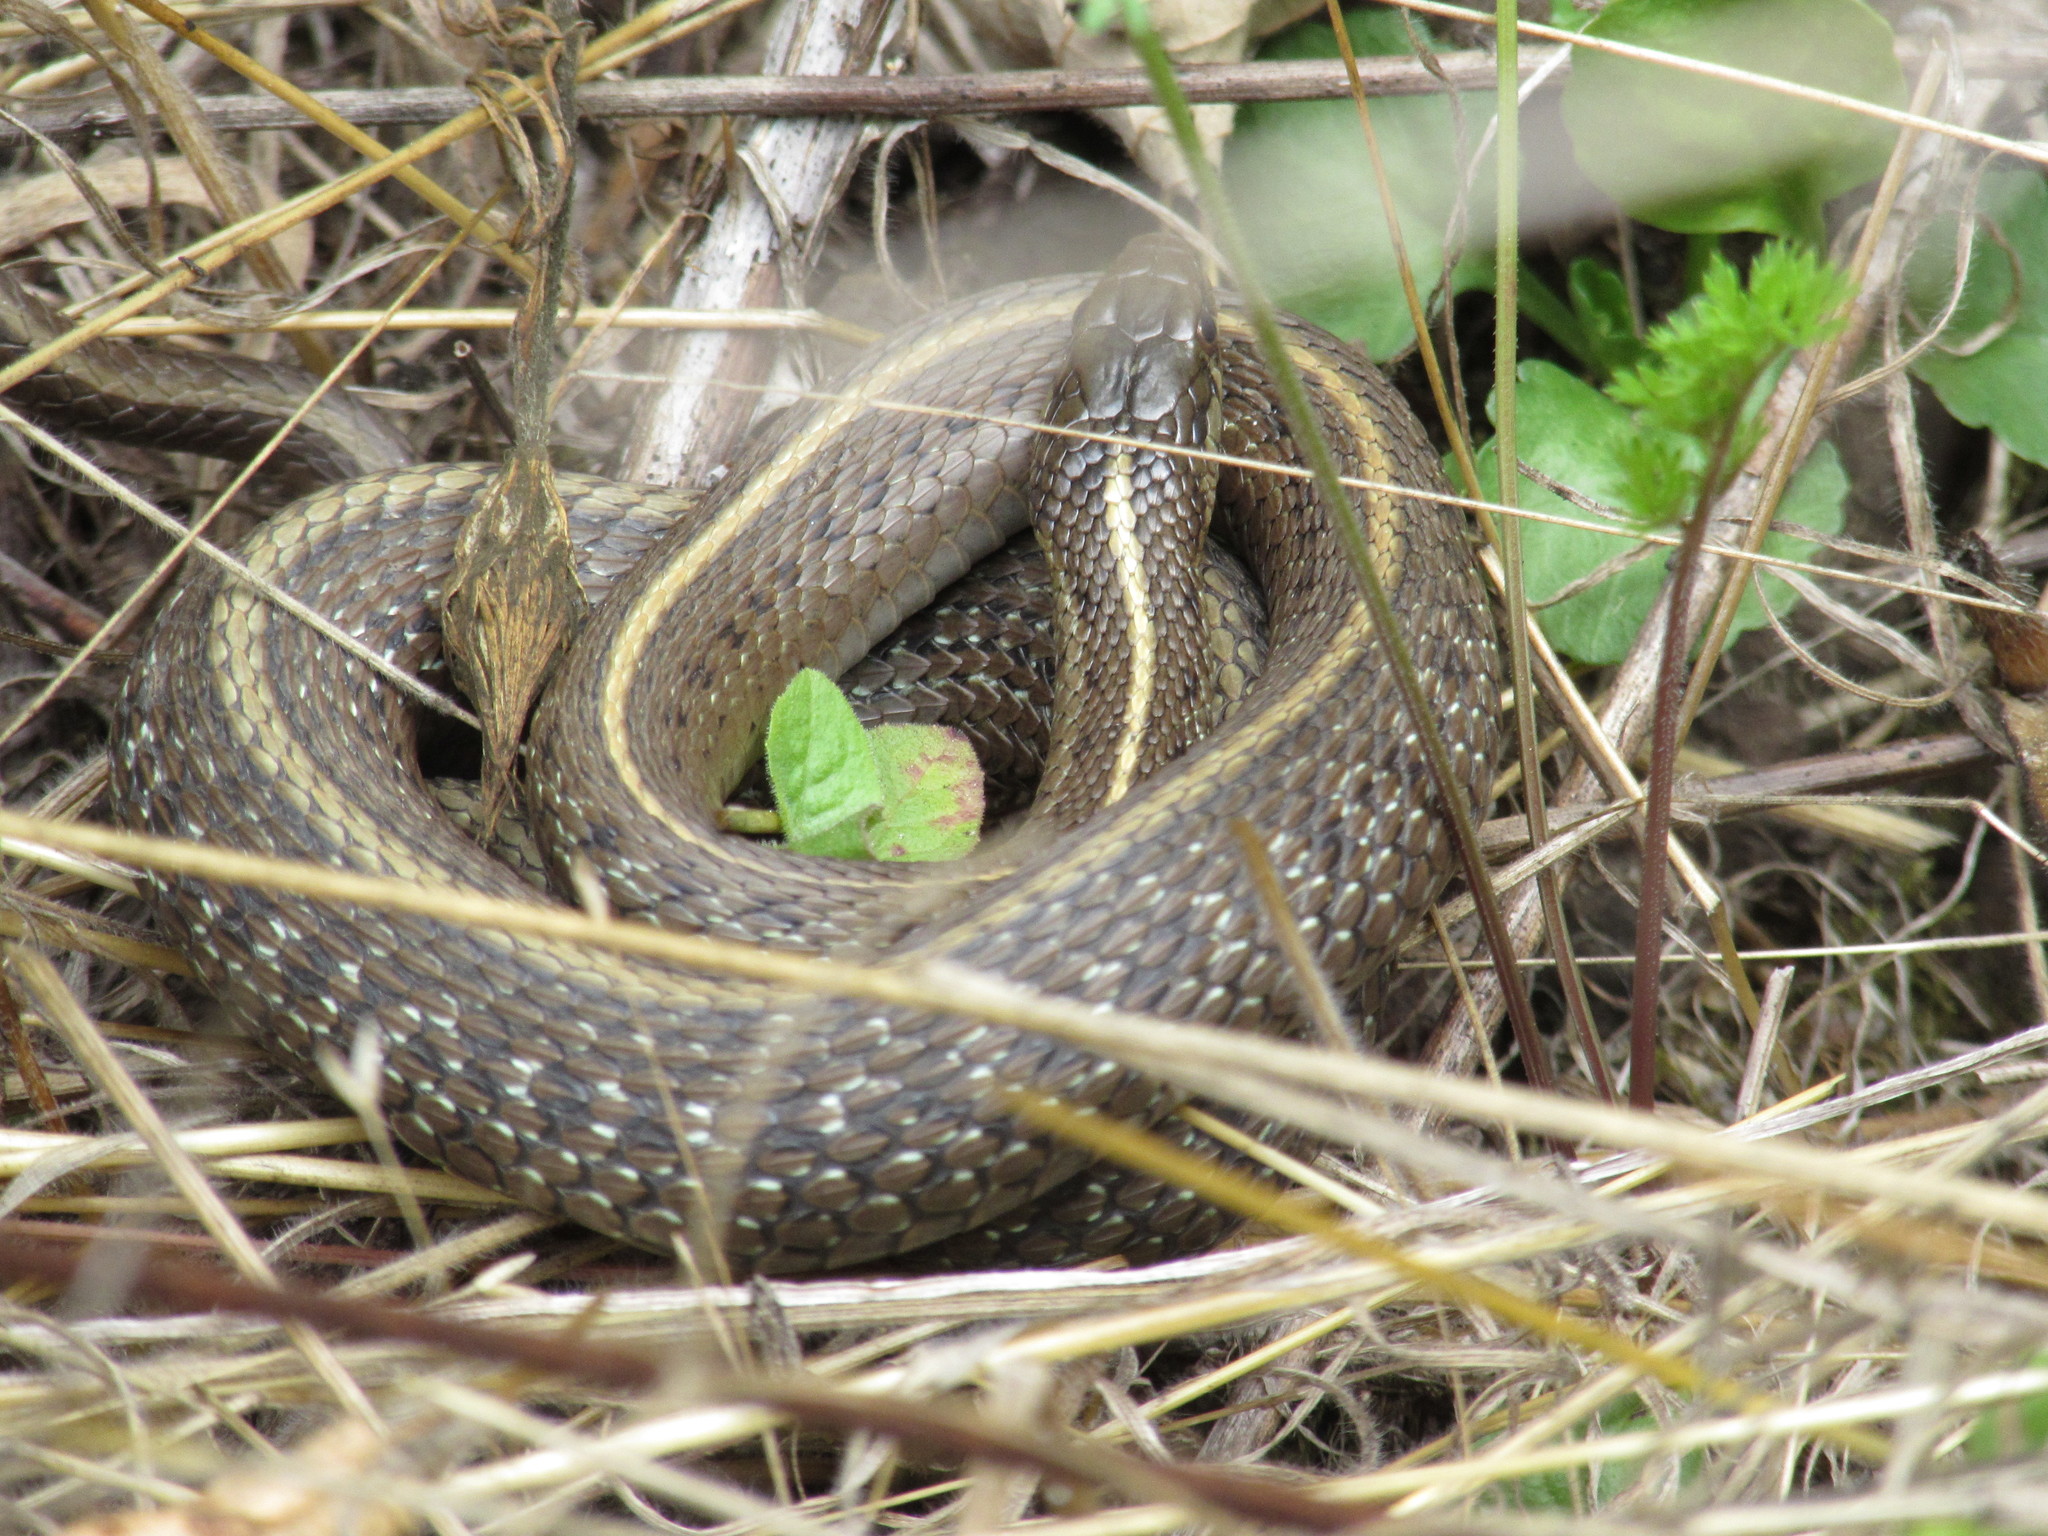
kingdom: Animalia
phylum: Chordata
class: Squamata
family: Colubridae
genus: Thamnophis
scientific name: Thamnophis ordinoides
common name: Northwestern garter snake
